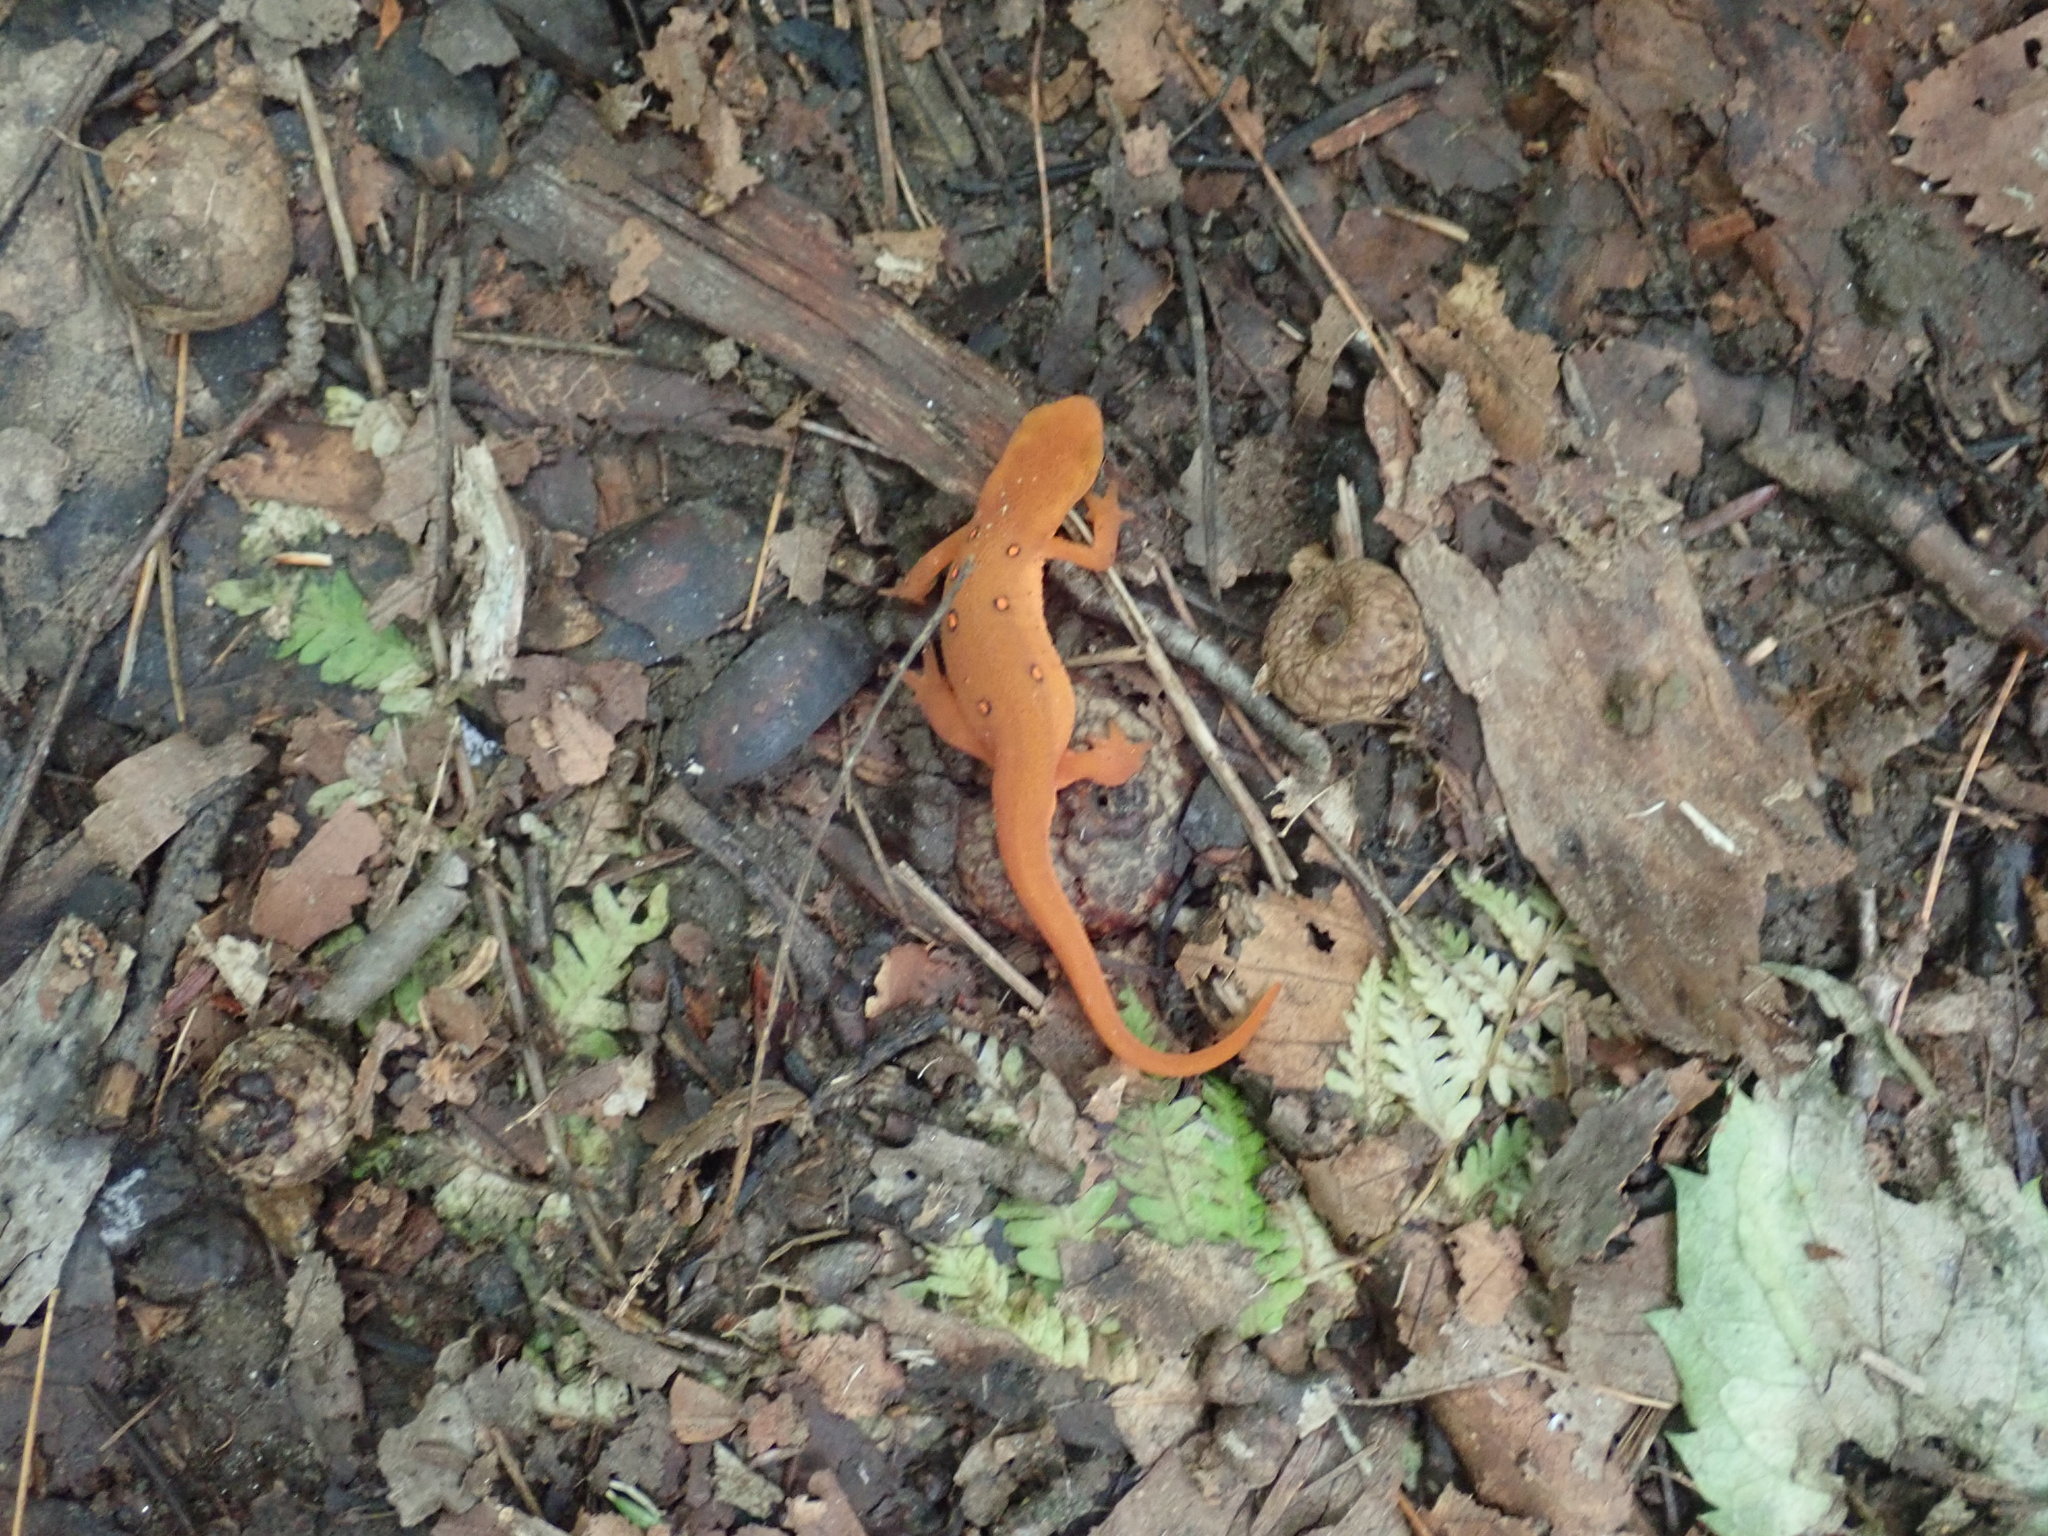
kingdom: Animalia
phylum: Chordata
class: Amphibia
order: Caudata
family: Salamandridae
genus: Notophthalmus
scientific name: Notophthalmus viridescens
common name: Eastern newt
